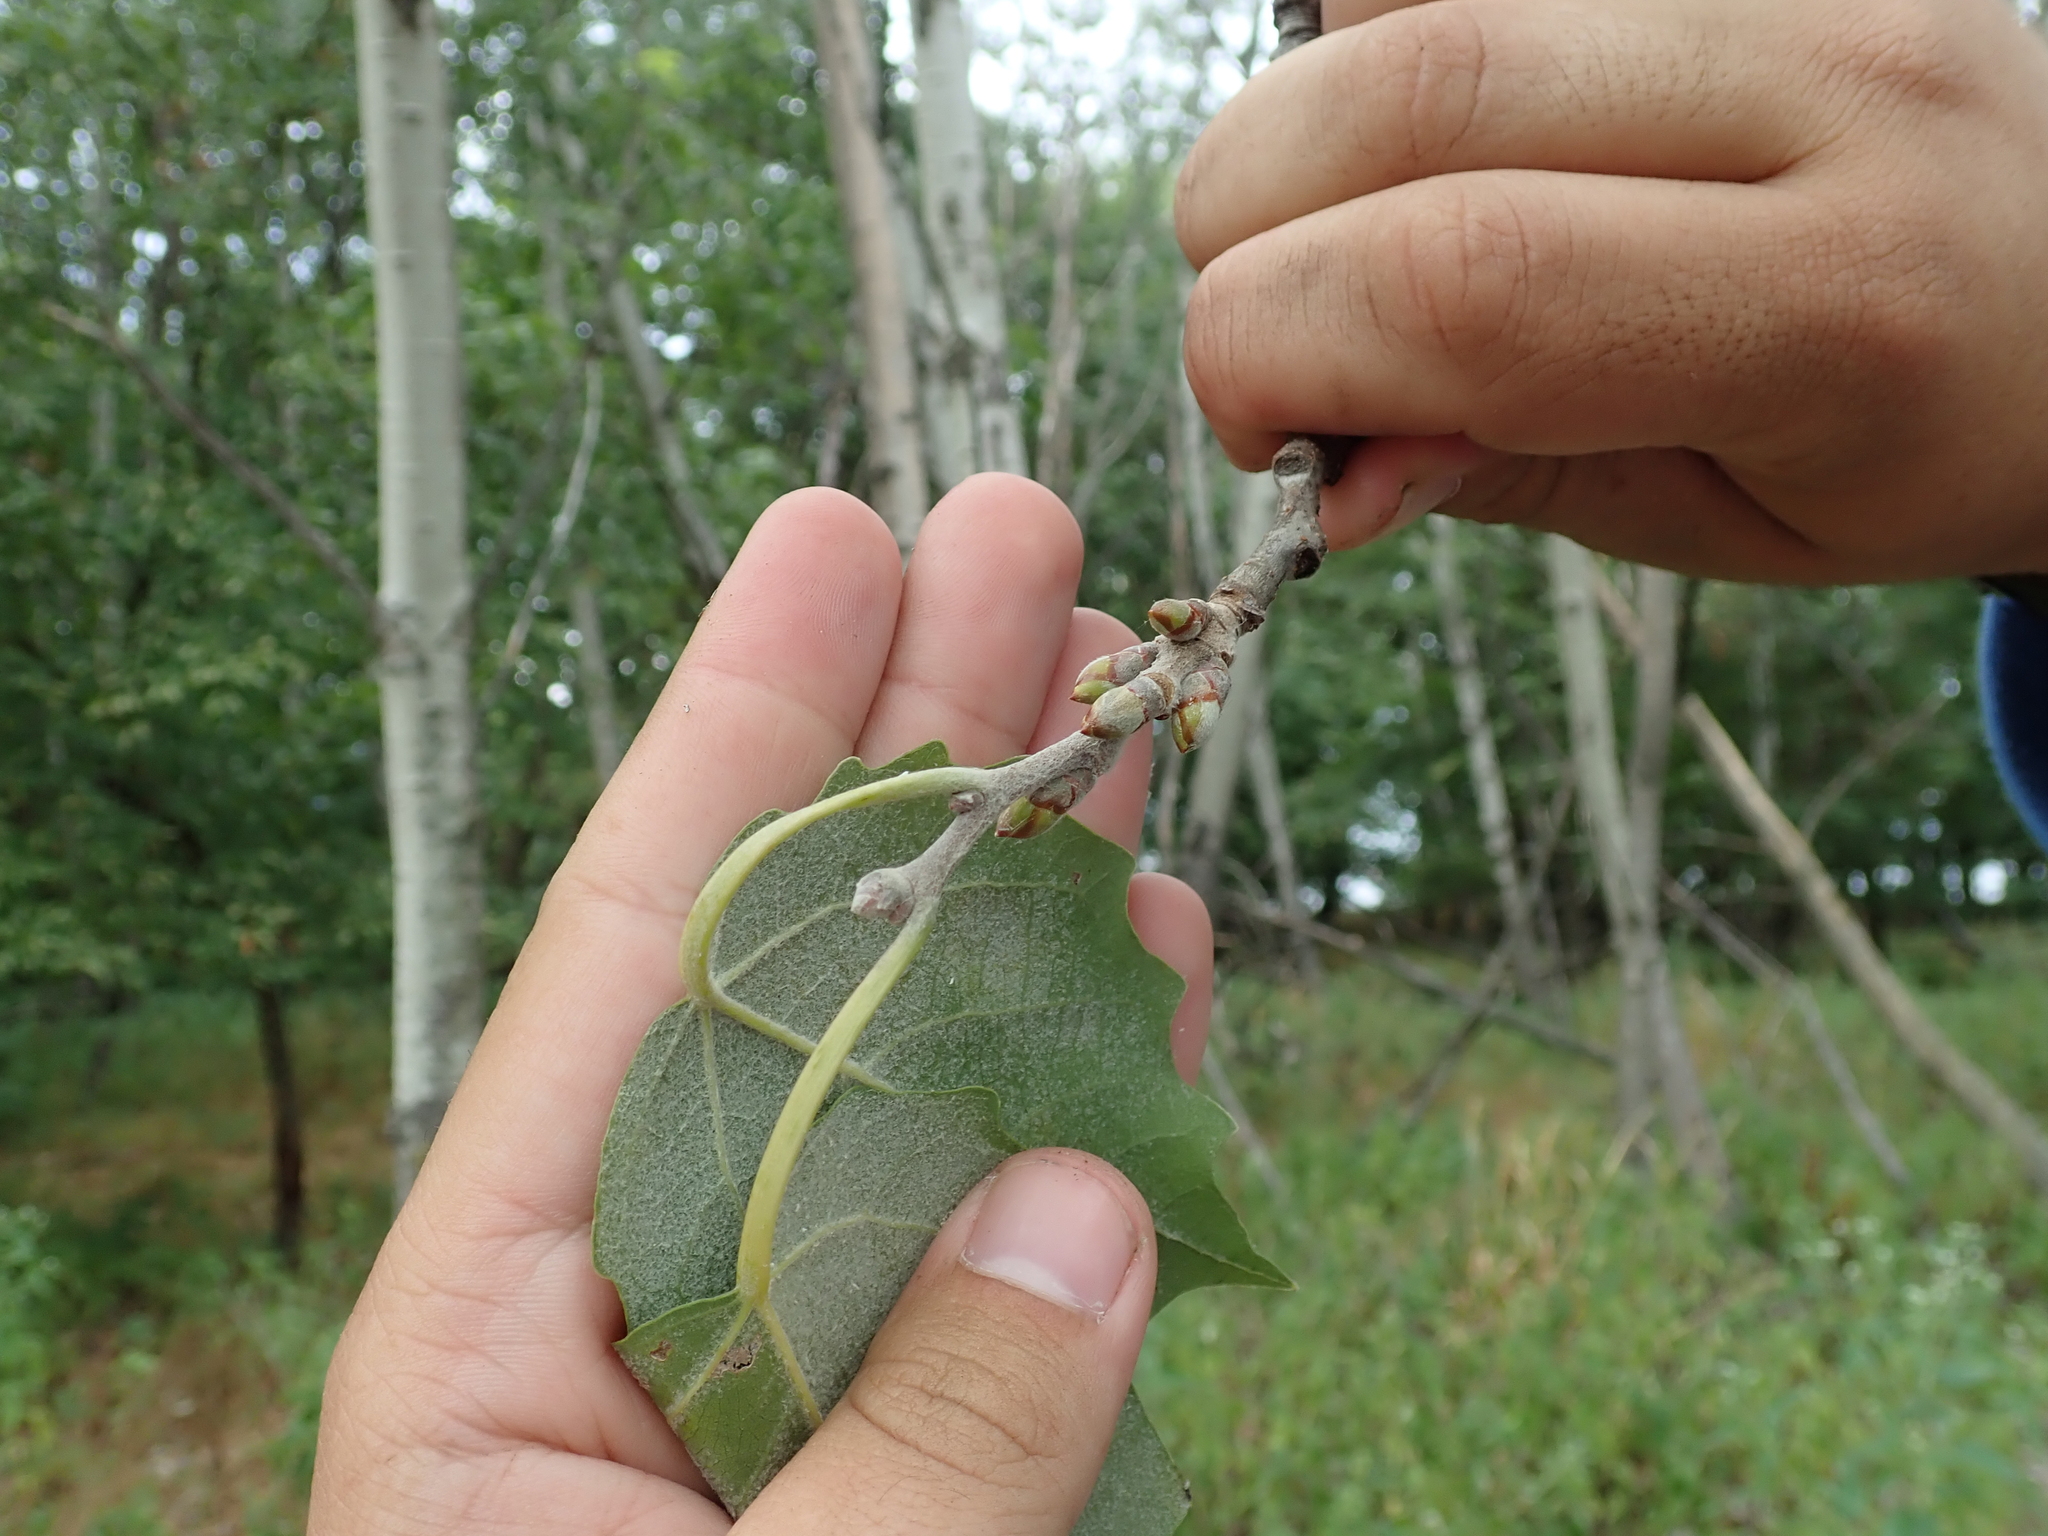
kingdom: Plantae
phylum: Tracheophyta
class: Magnoliopsida
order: Malpighiales
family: Salicaceae
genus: Populus
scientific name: Populus alba
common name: White poplar
